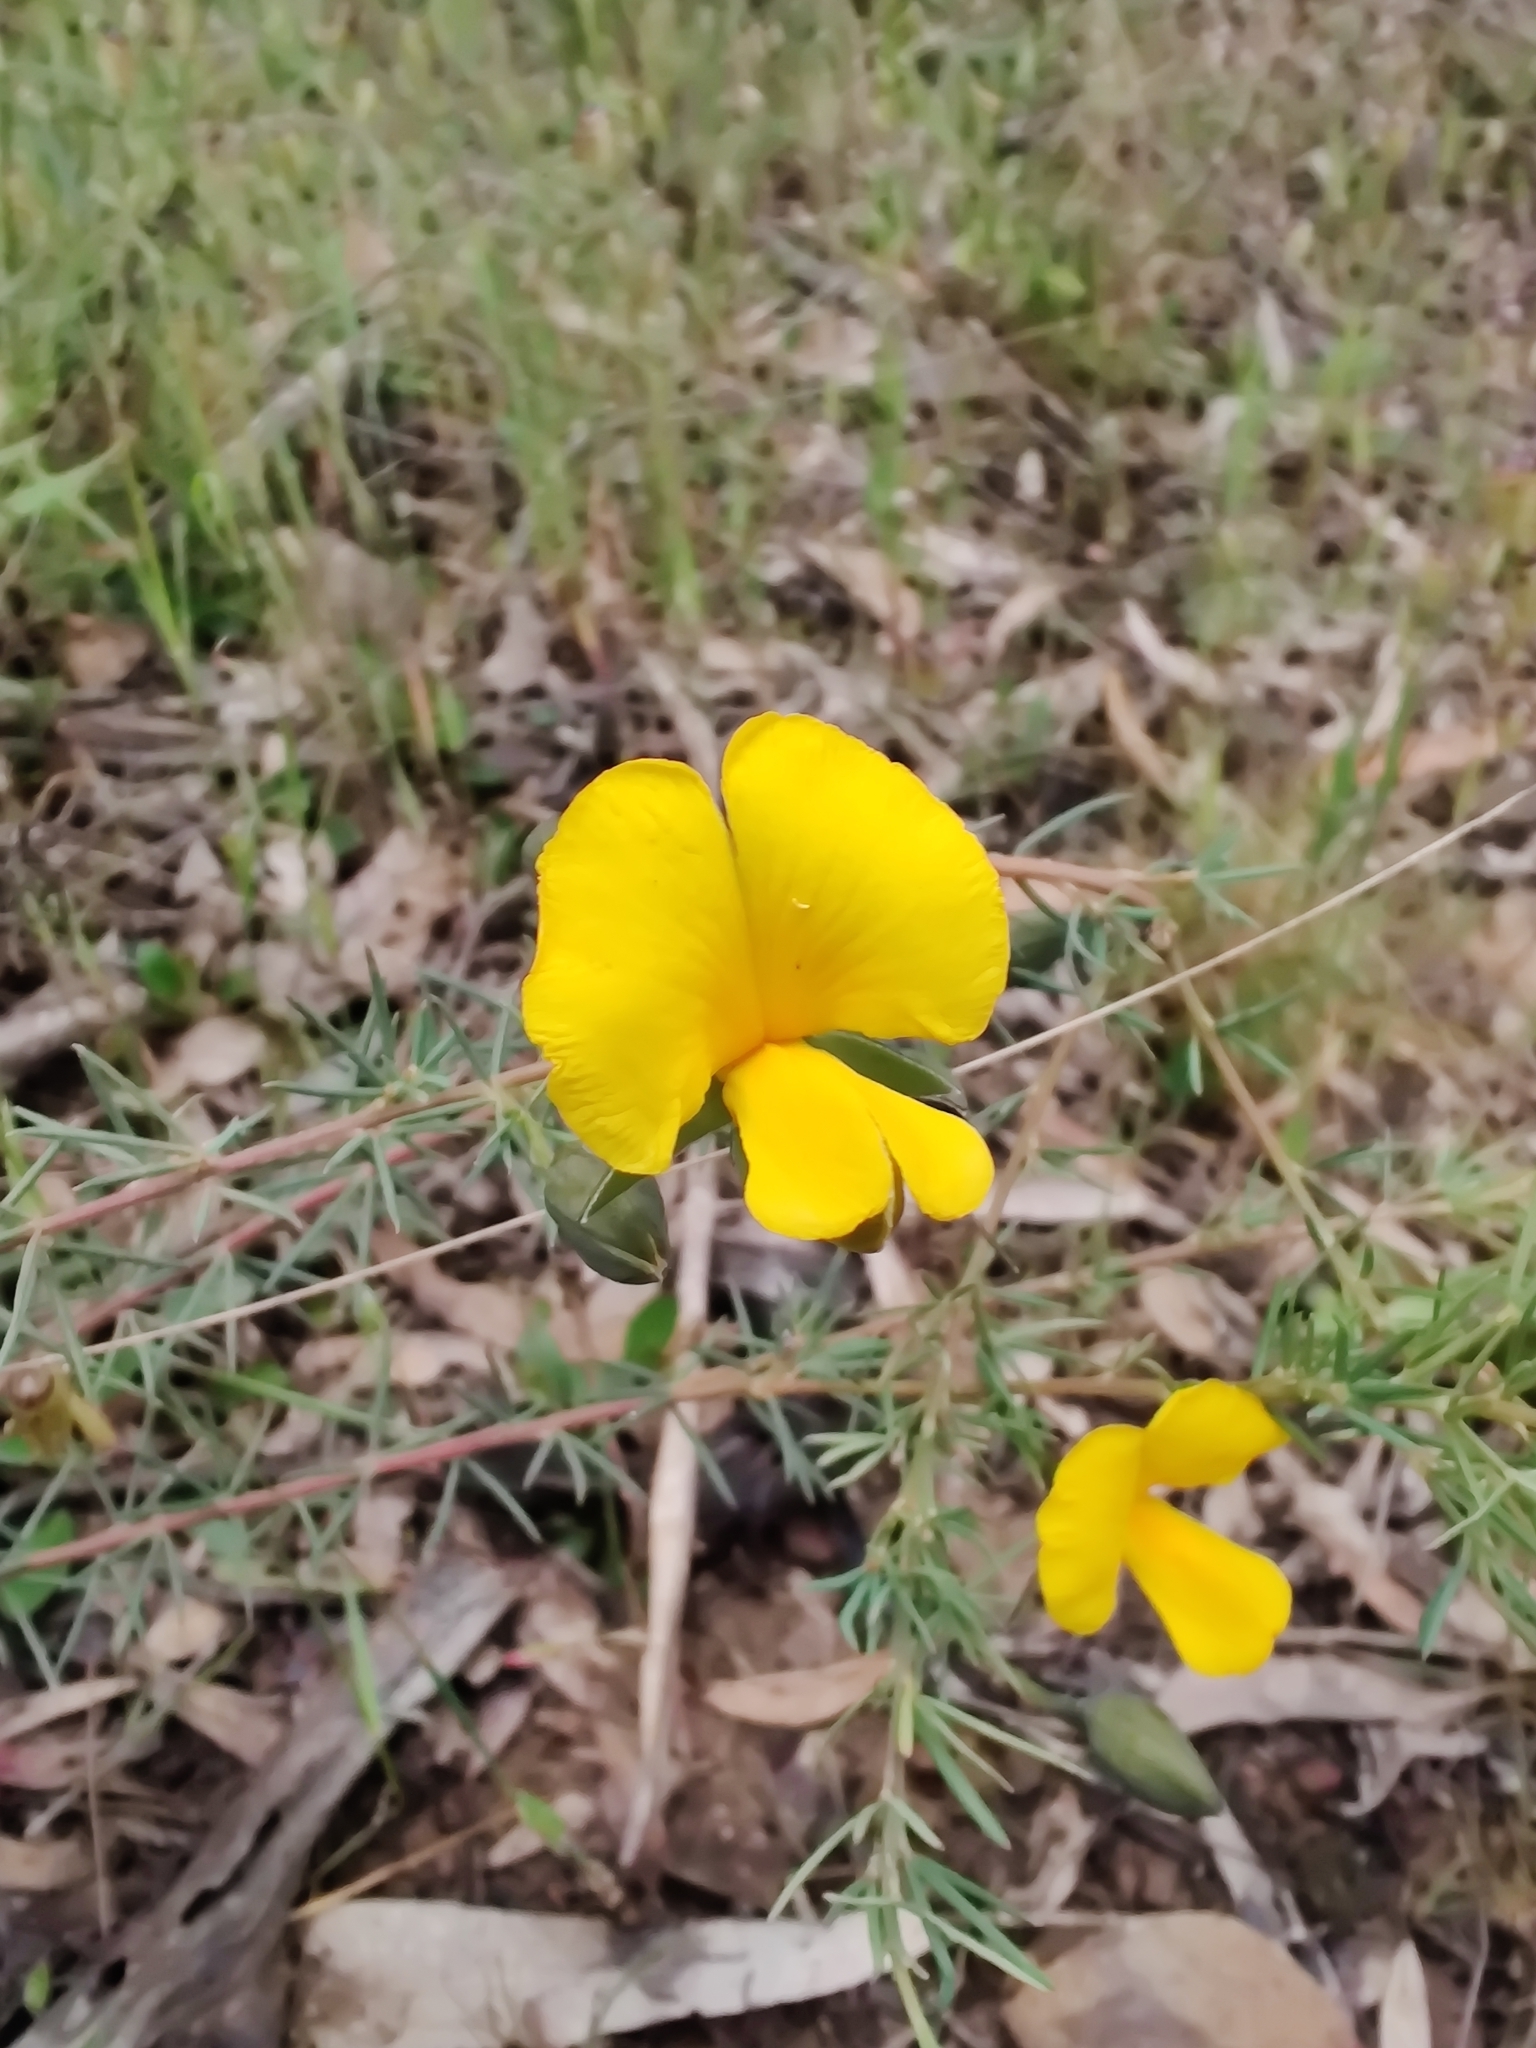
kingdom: Plantae
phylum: Tracheophyta
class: Magnoliopsida
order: Fabales
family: Fabaceae
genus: Gompholobium
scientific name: Gompholobium huegelii
